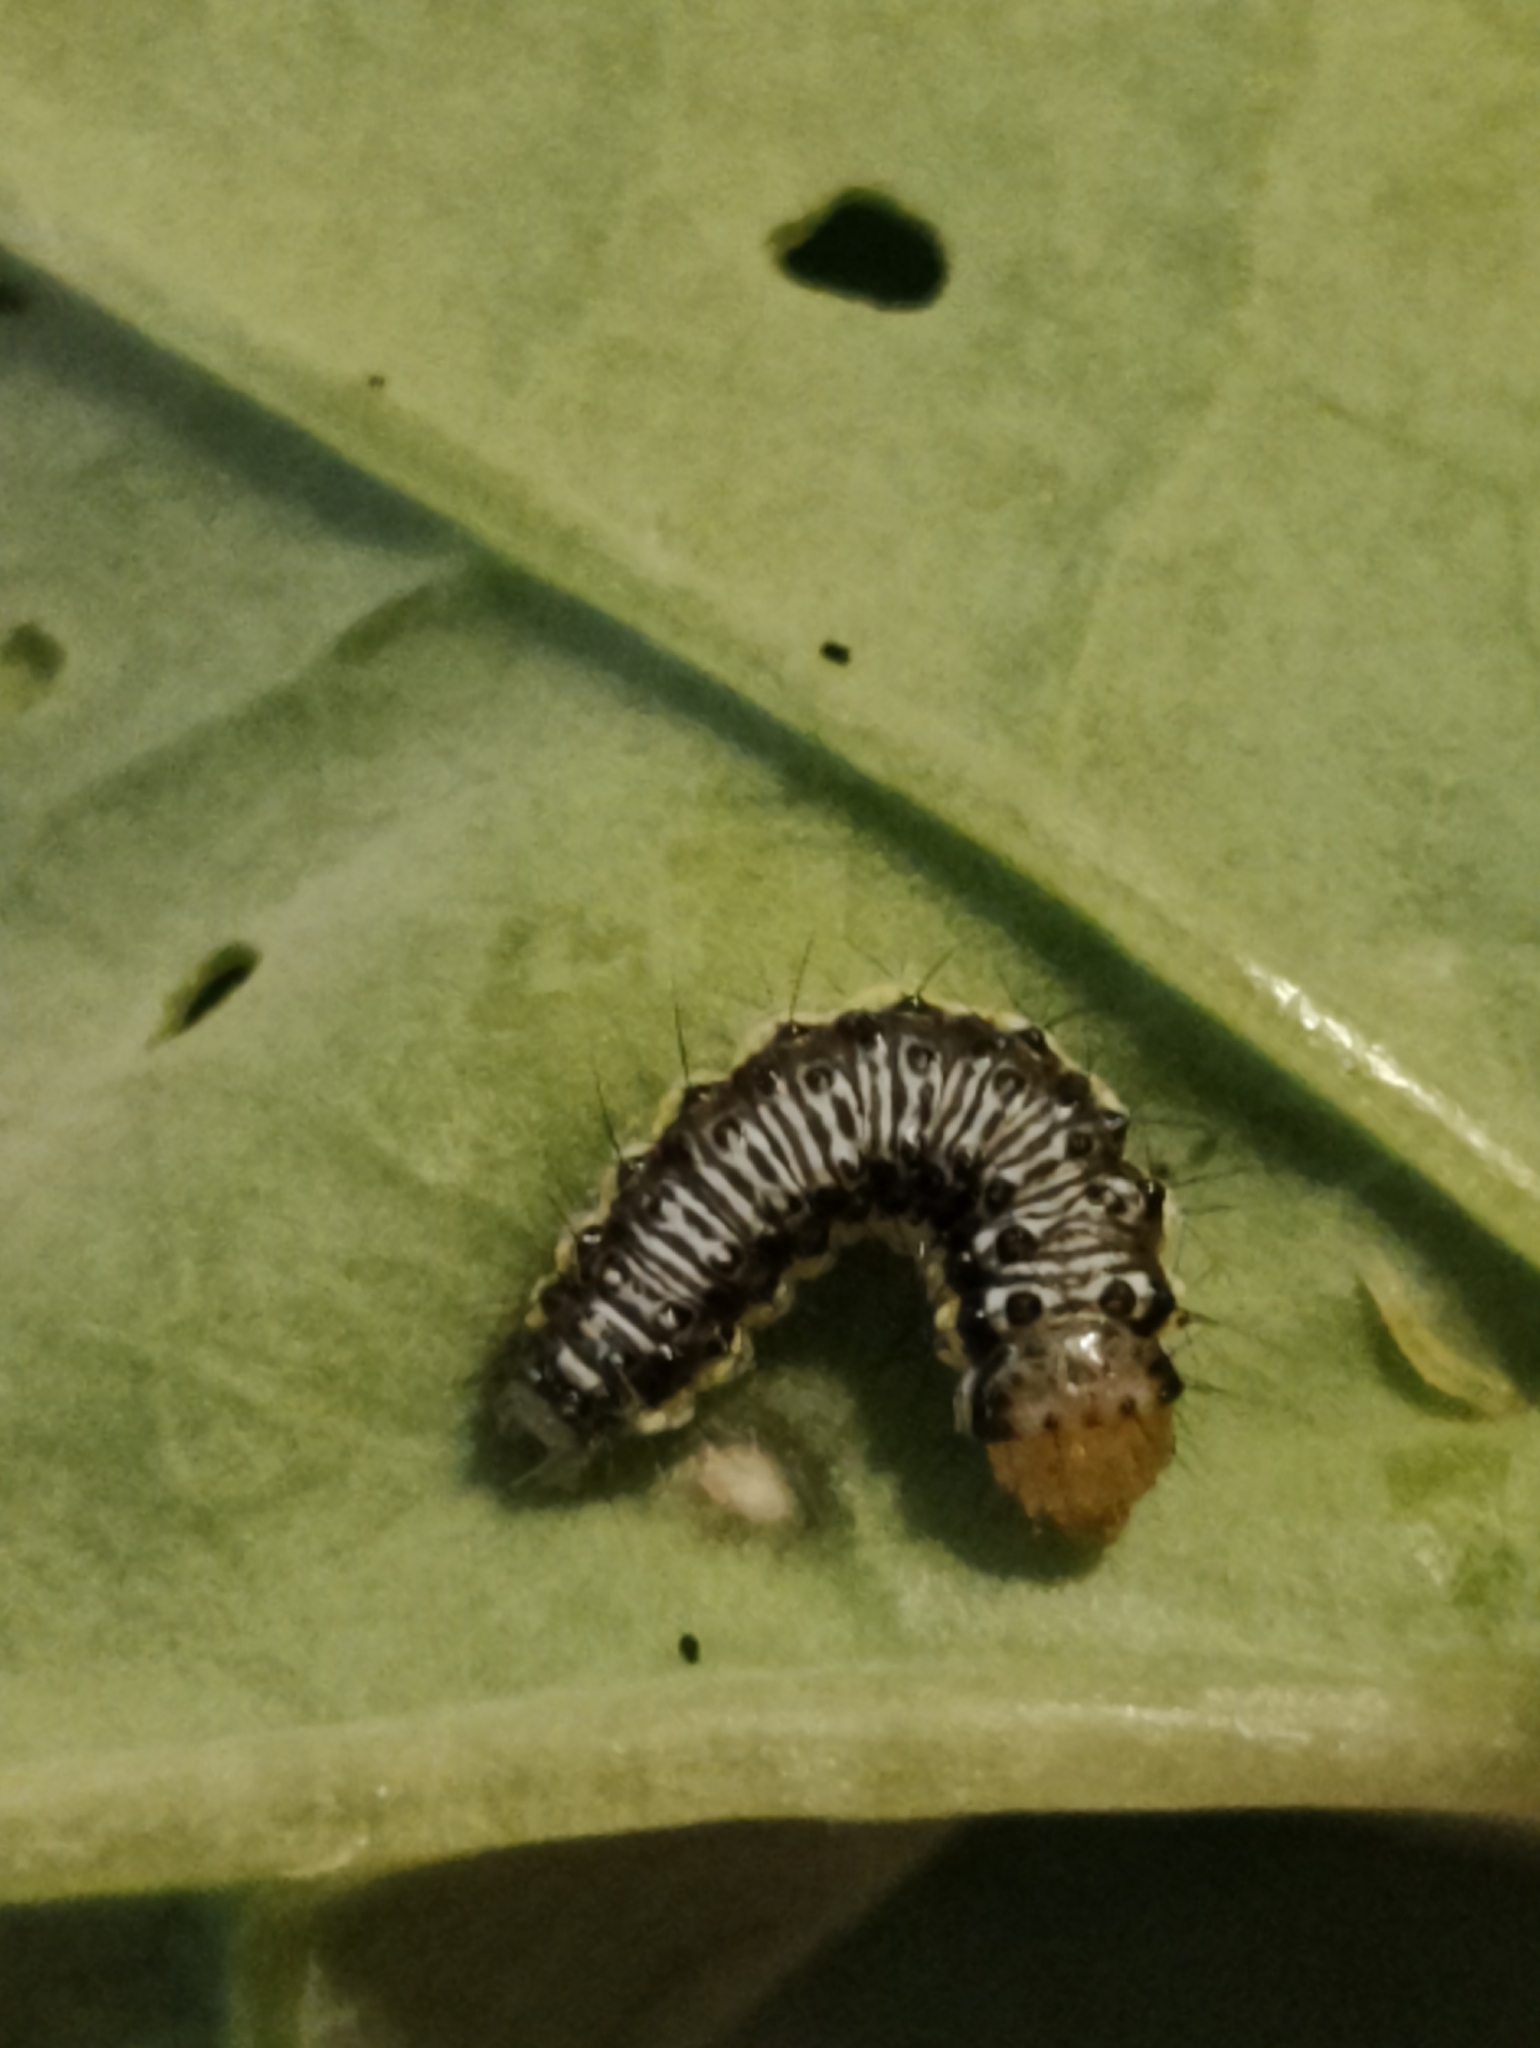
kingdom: Animalia
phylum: Arthropoda
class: Insecta
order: Lepidoptera
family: Crambidae
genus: Evergestis
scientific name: Evergestis rimosalis
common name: Cross-striped cabbageworm moth
